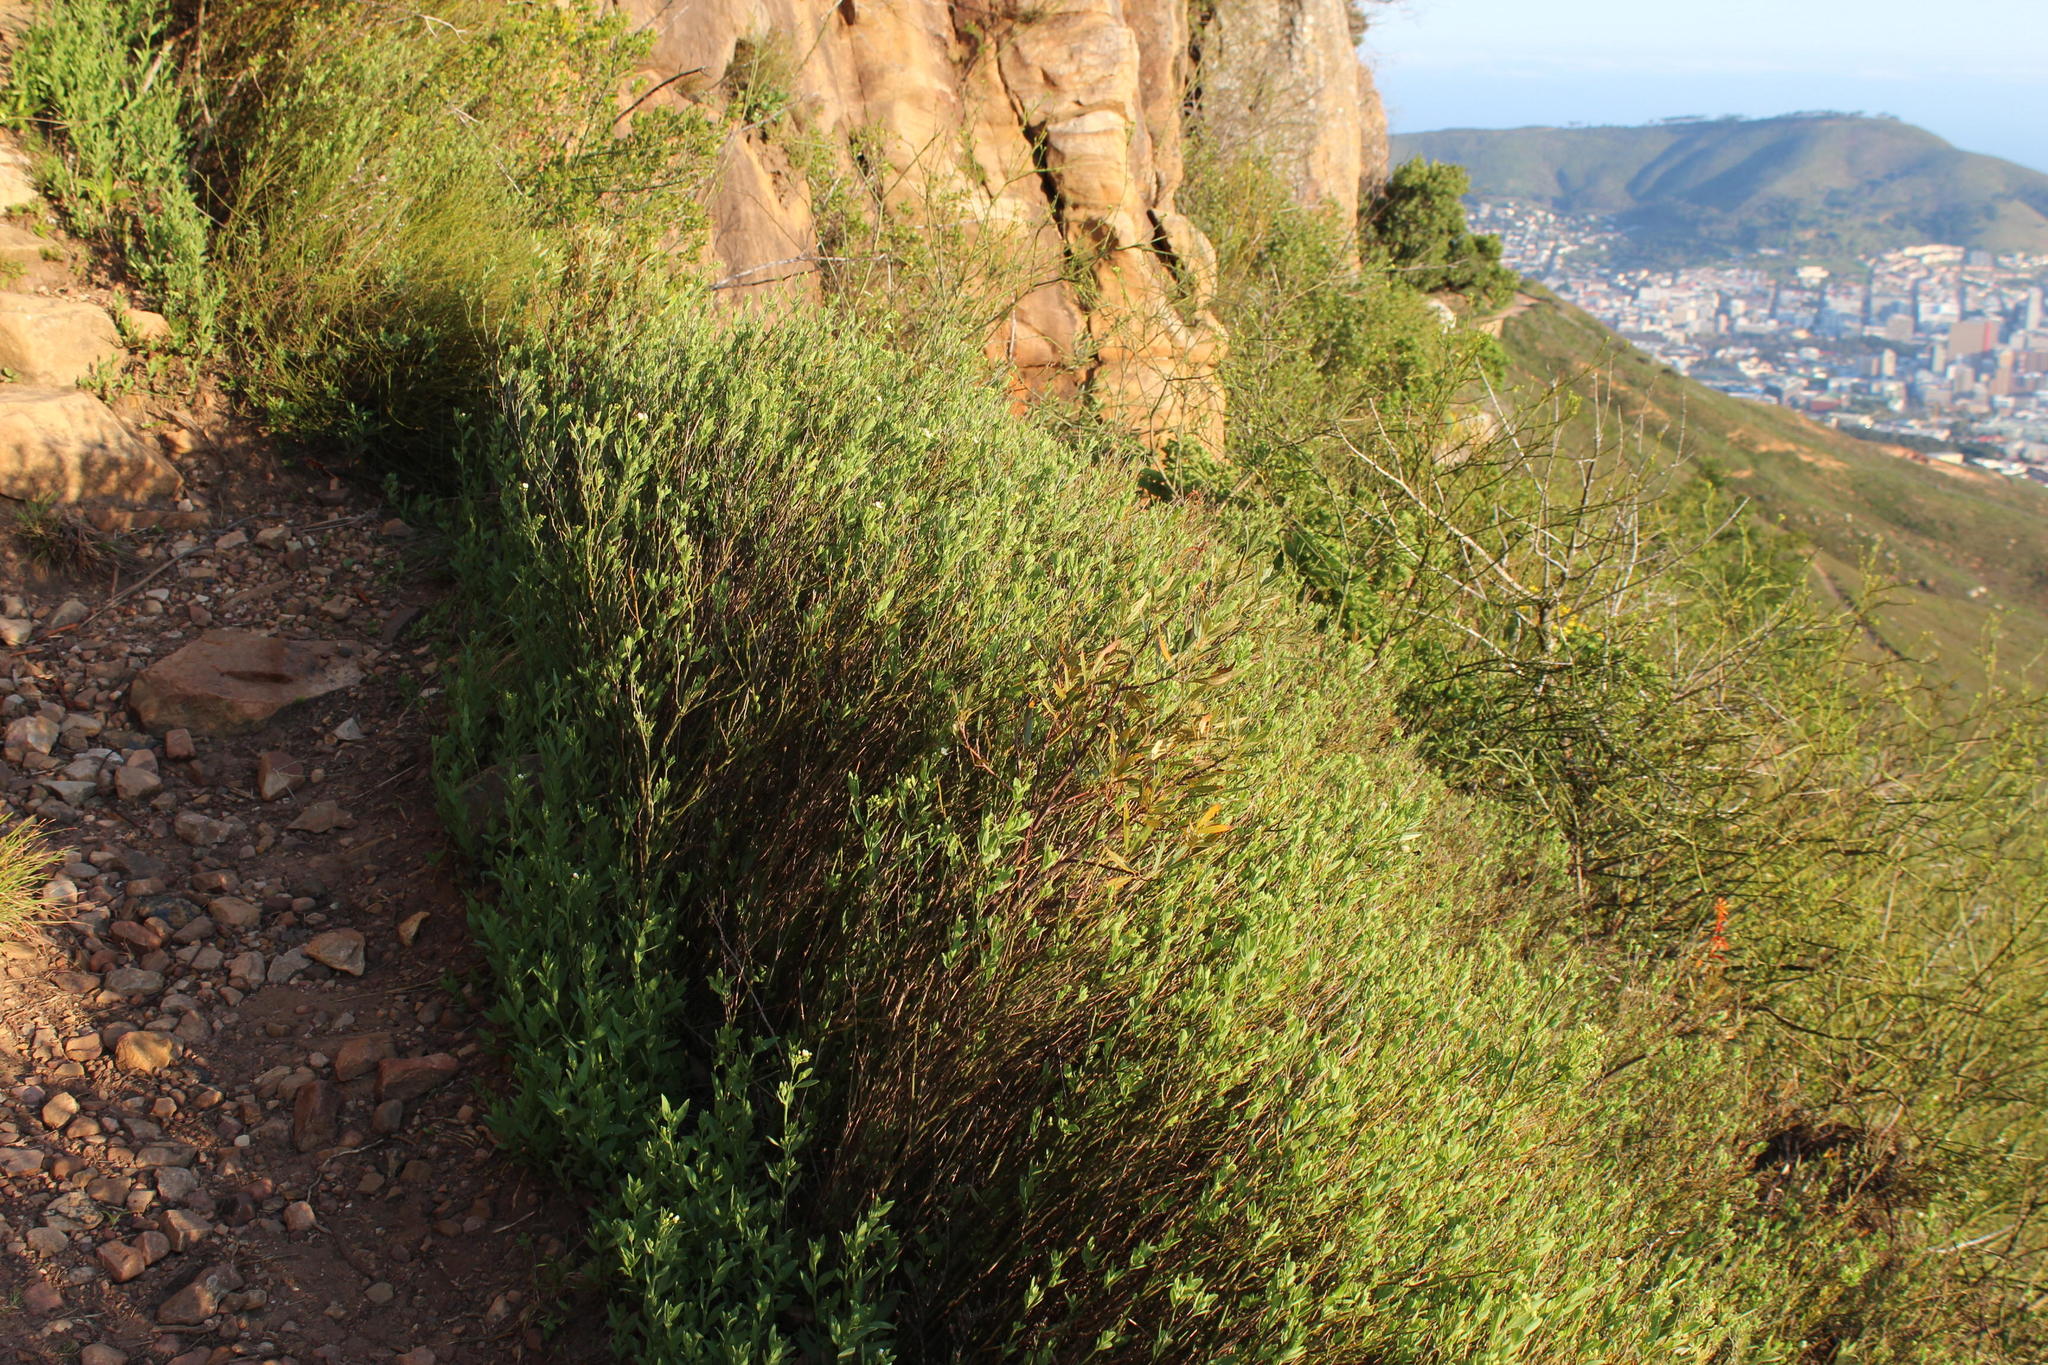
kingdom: Plantae
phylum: Tracheophyta
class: Magnoliopsida
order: Solanales
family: Montiniaceae
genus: Montinia
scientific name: Montinia caryophyllacea
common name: Wild clove-bush
